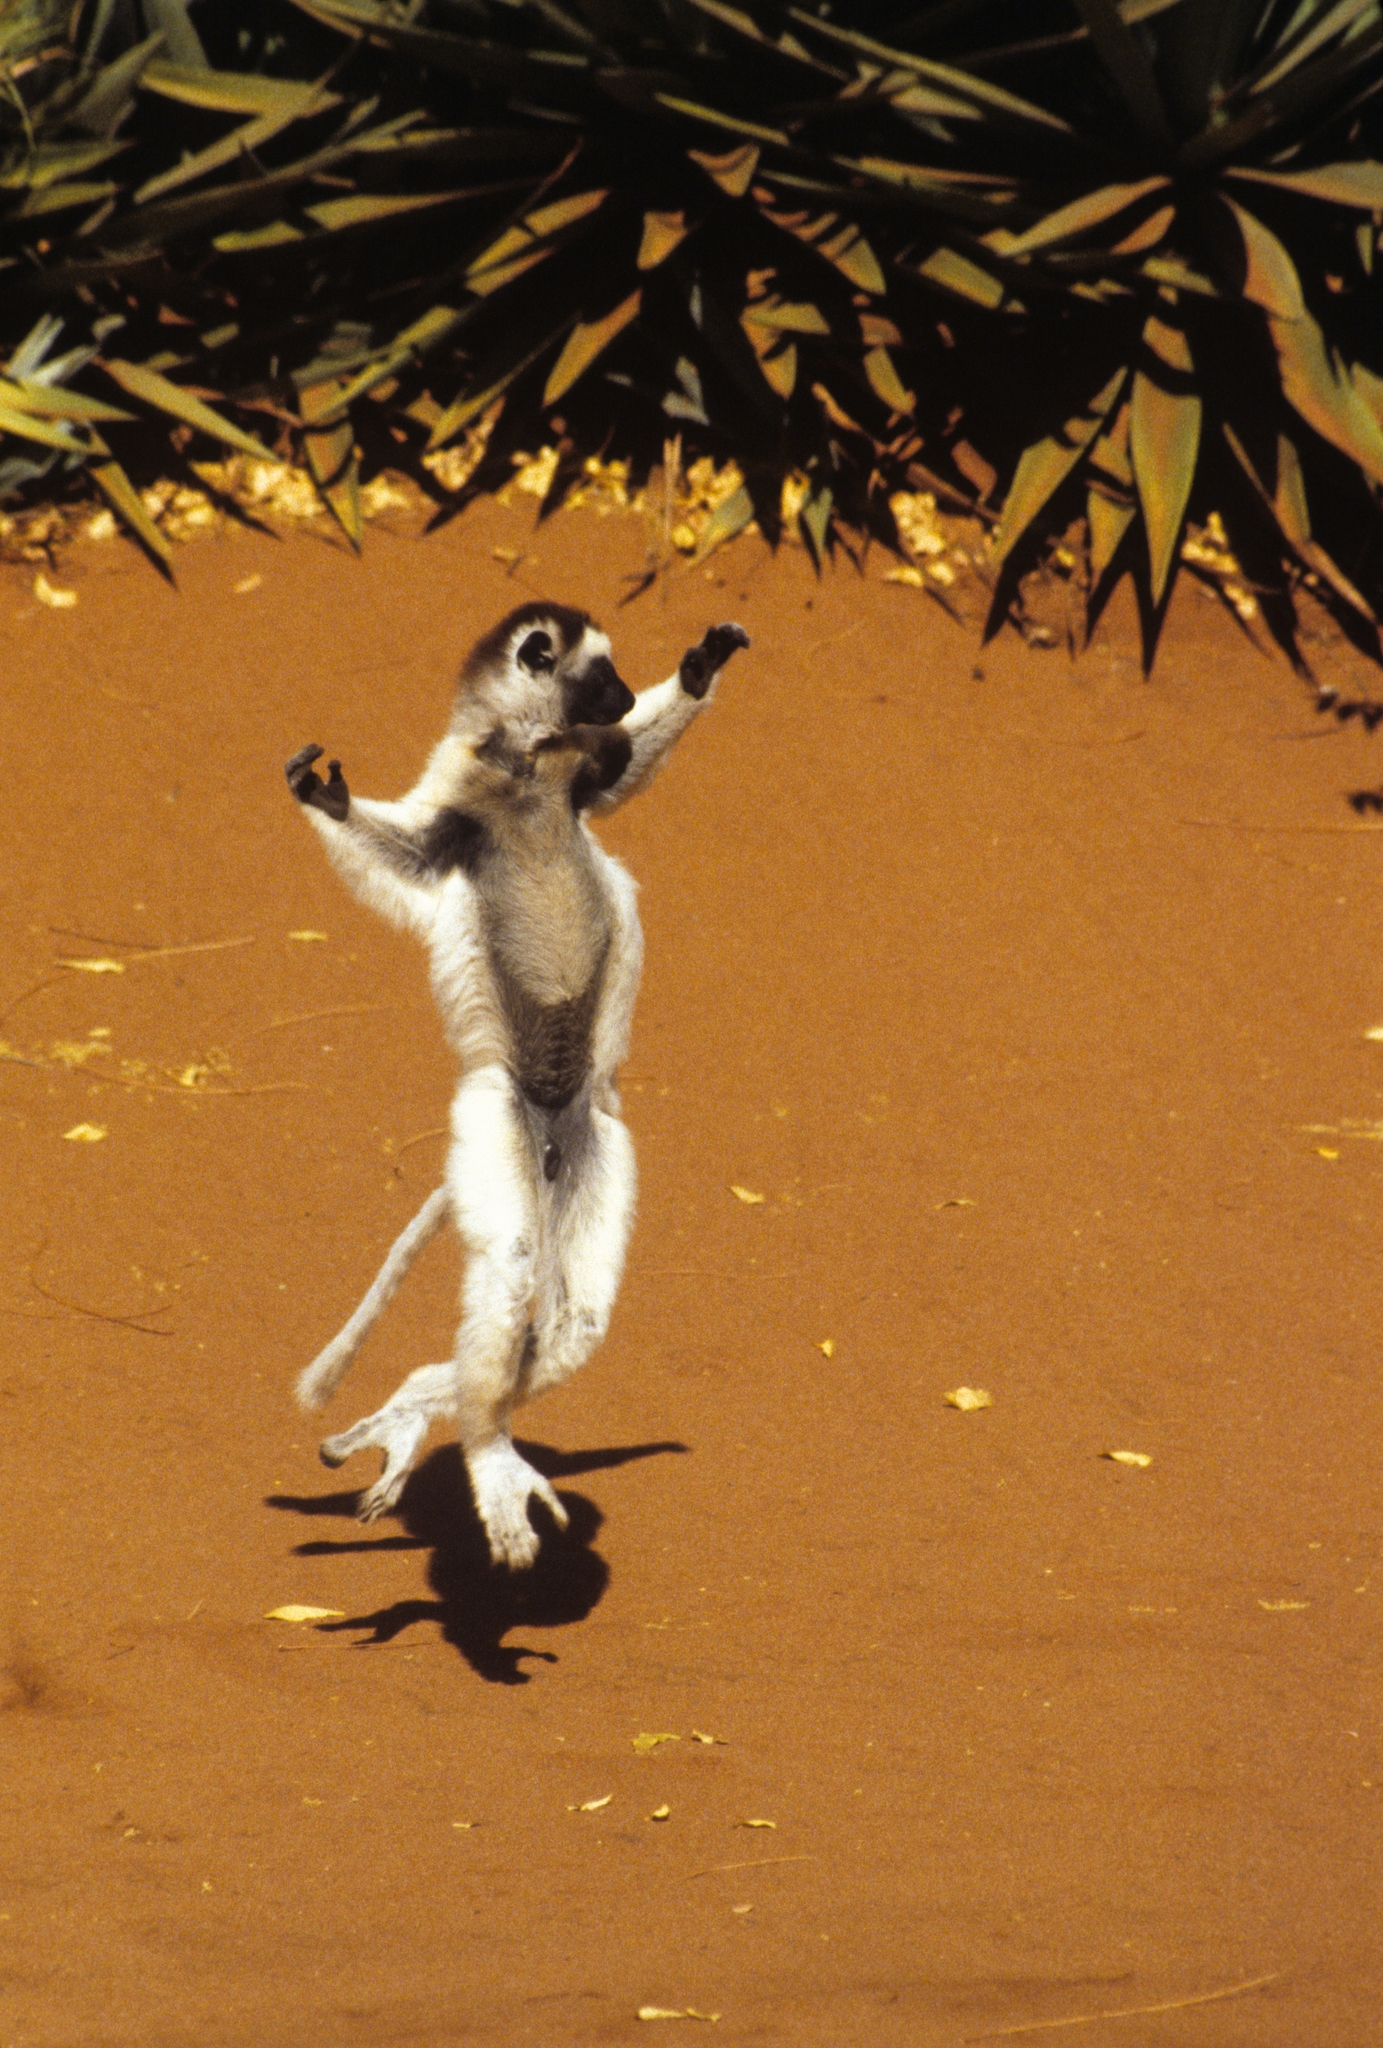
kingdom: Animalia
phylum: Chordata
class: Mammalia
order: Primates
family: Indriidae
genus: Propithecus
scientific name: Propithecus verreauxi
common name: Verreaux's sifaka
